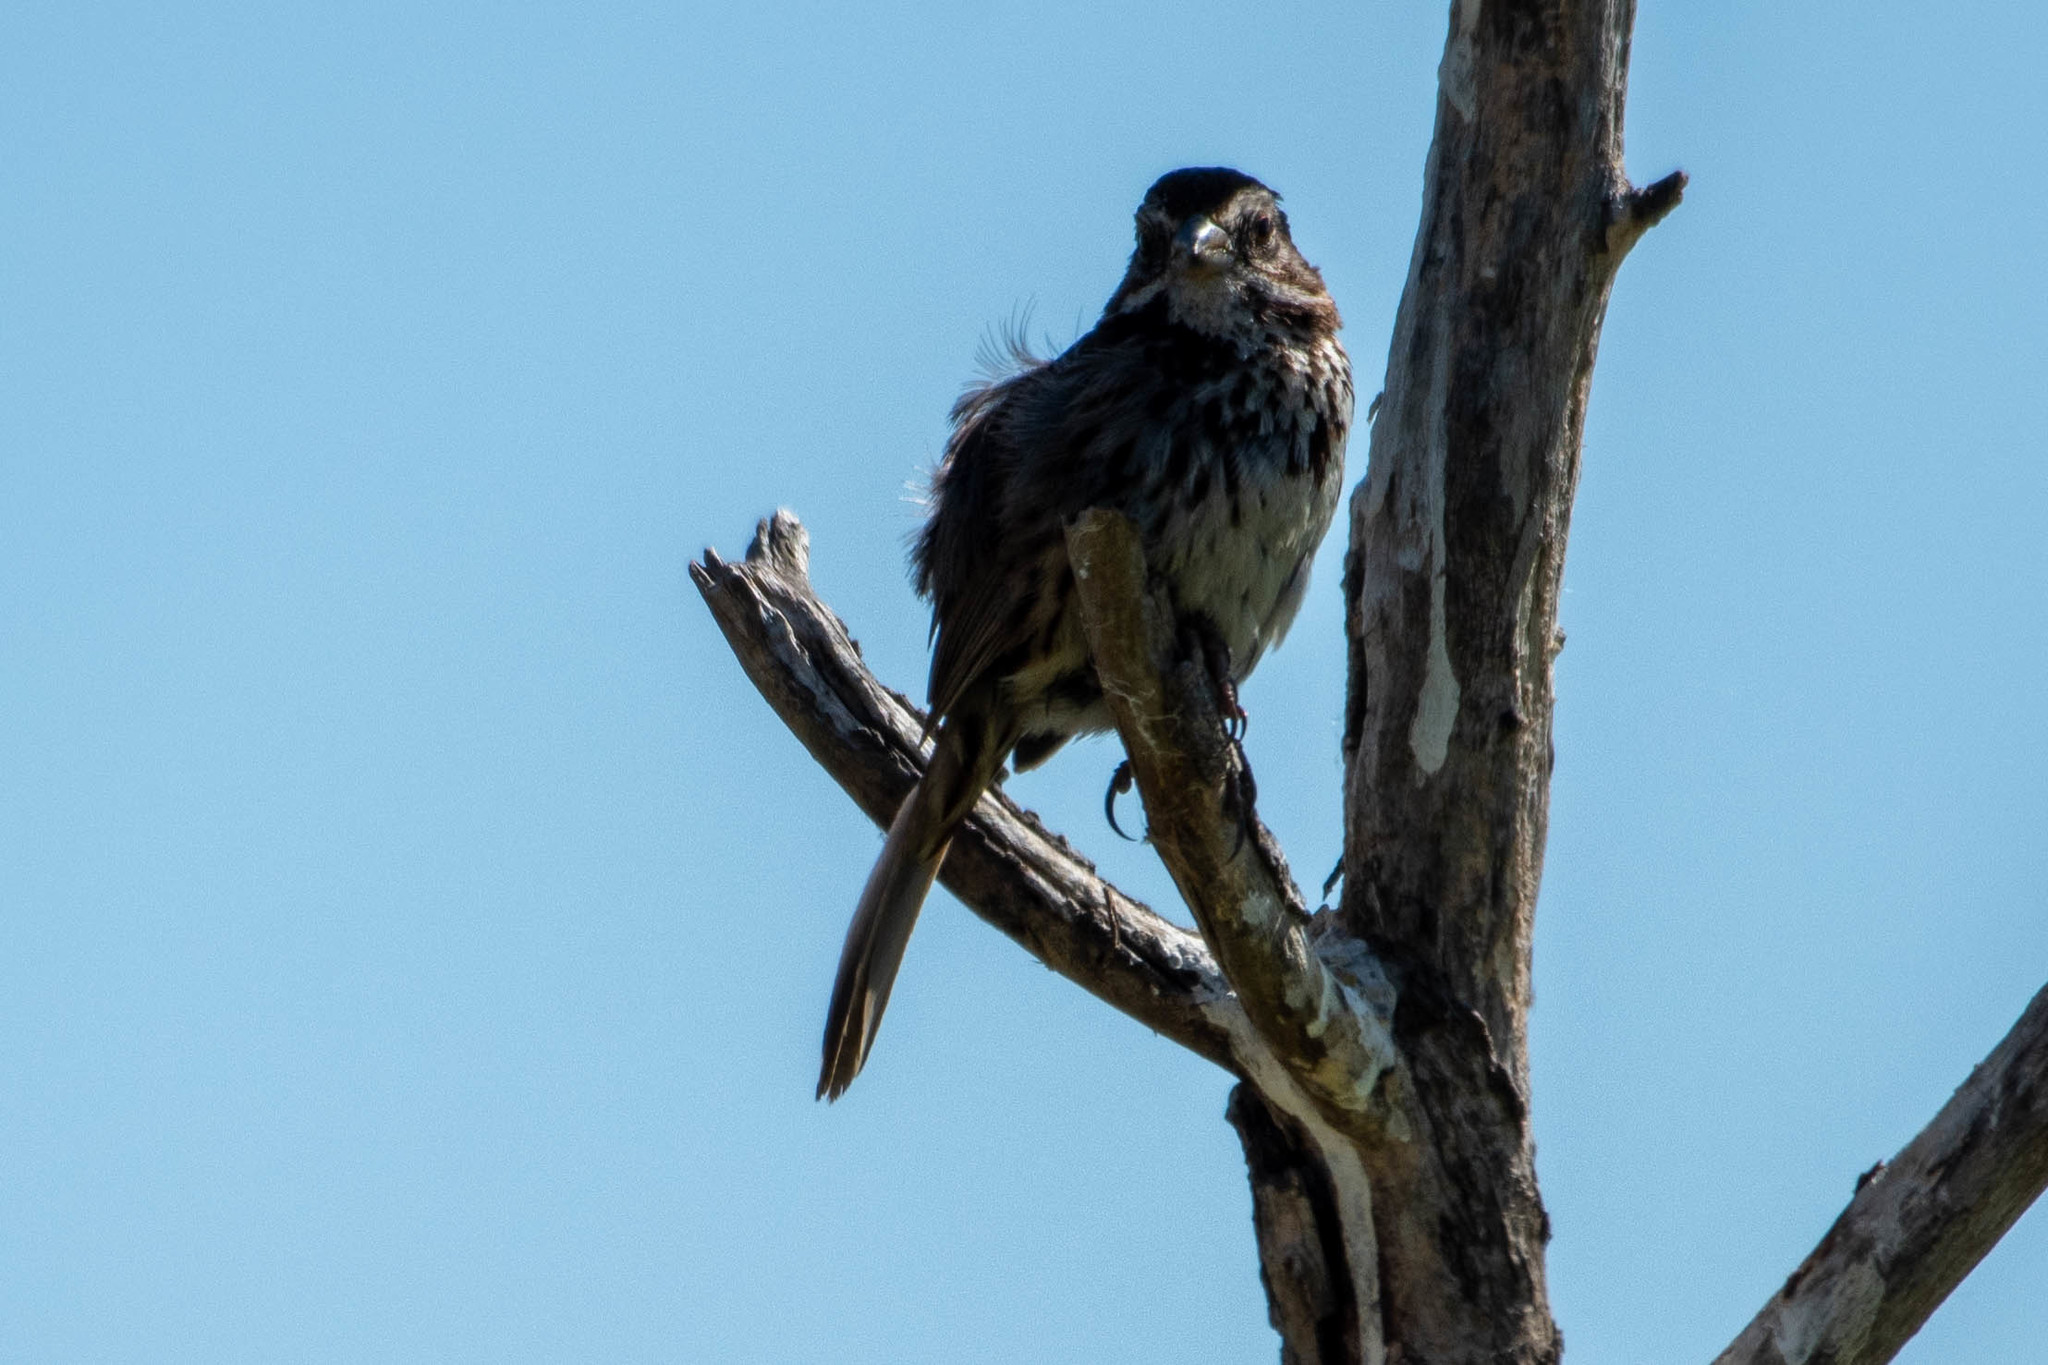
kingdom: Animalia
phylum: Chordata
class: Aves
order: Passeriformes
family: Passerellidae
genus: Melospiza
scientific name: Melospiza melodia
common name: Song sparrow
